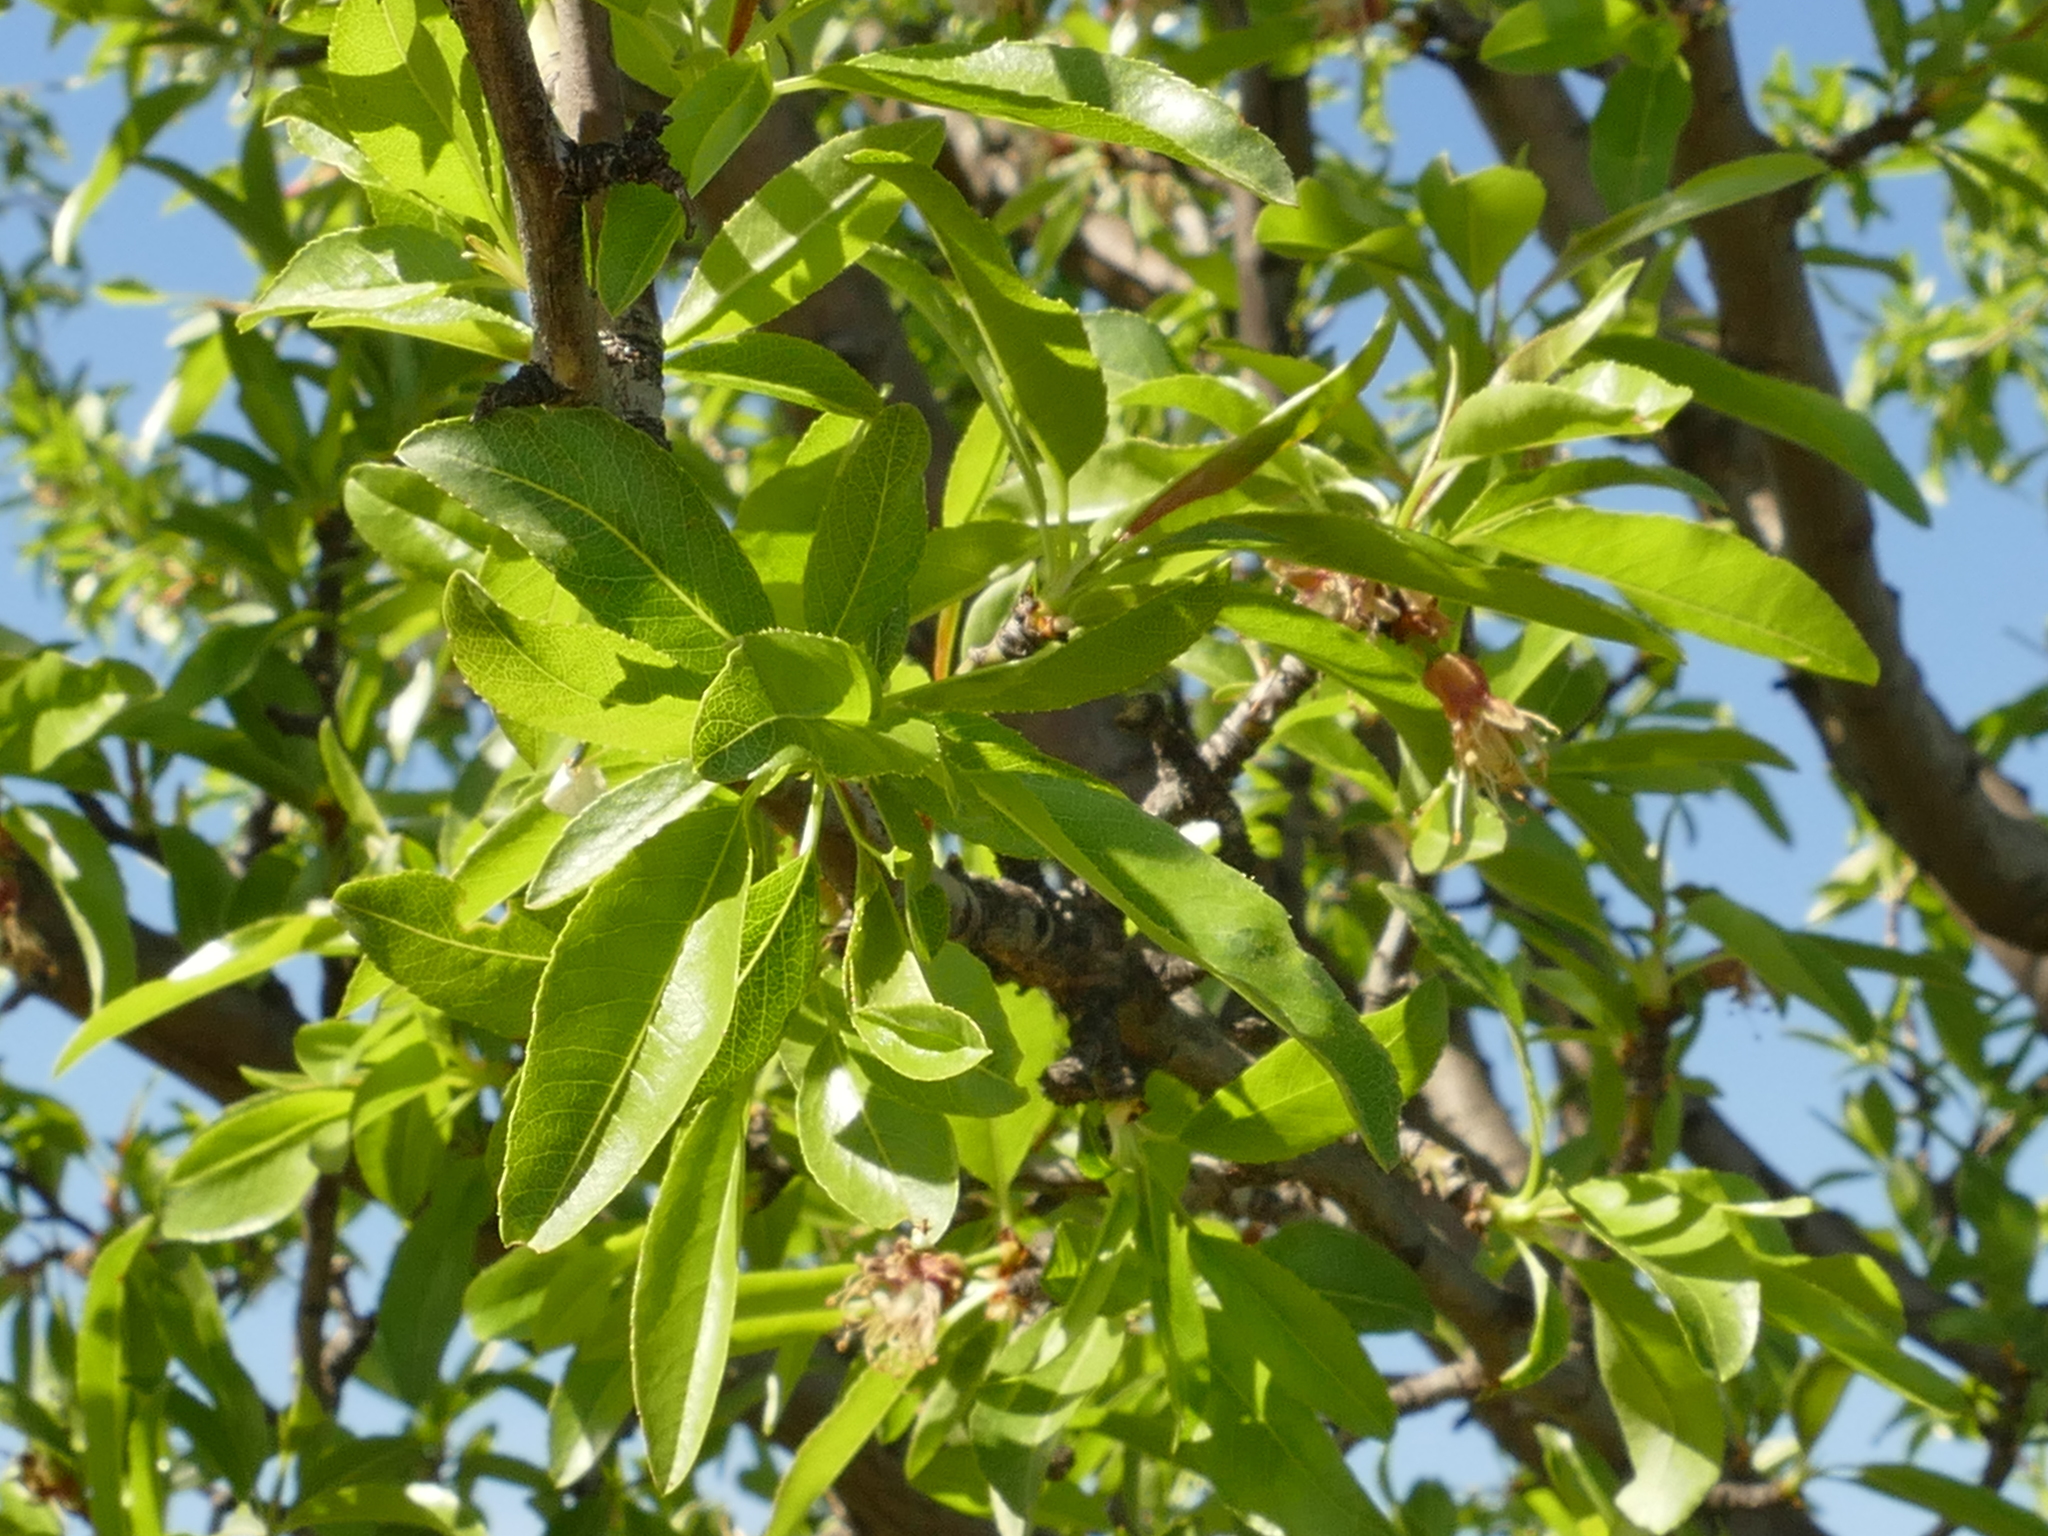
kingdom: Plantae
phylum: Tracheophyta
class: Magnoliopsida
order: Rosales
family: Rosaceae
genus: Prunus
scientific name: Prunus amygdalus
